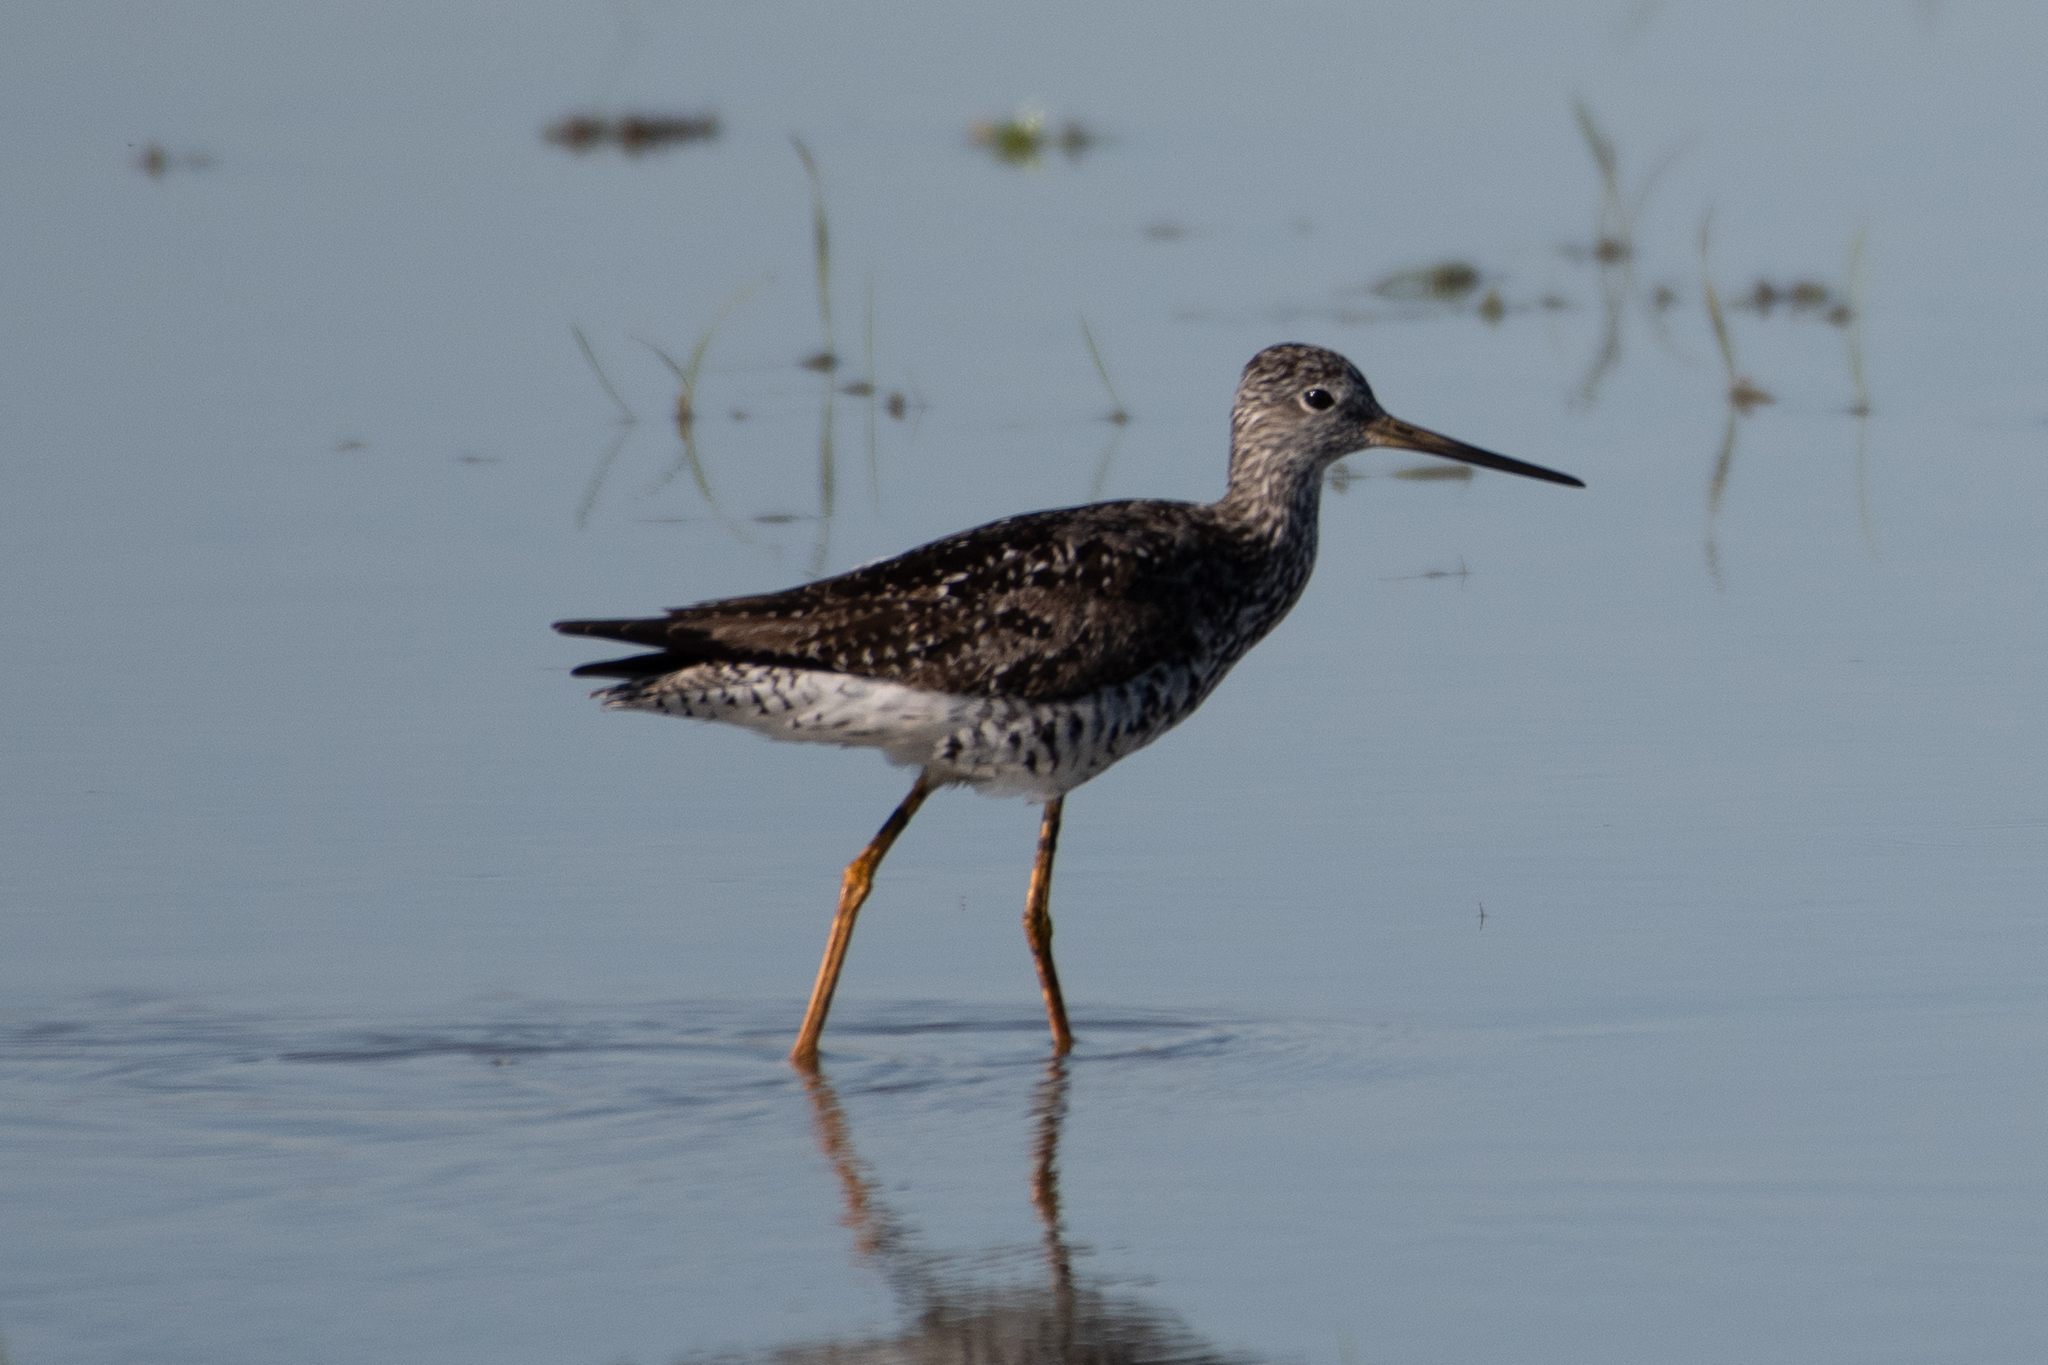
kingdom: Animalia
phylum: Chordata
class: Aves
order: Charadriiformes
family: Scolopacidae
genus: Tringa
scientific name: Tringa melanoleuca
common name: Greater yellowlegs
